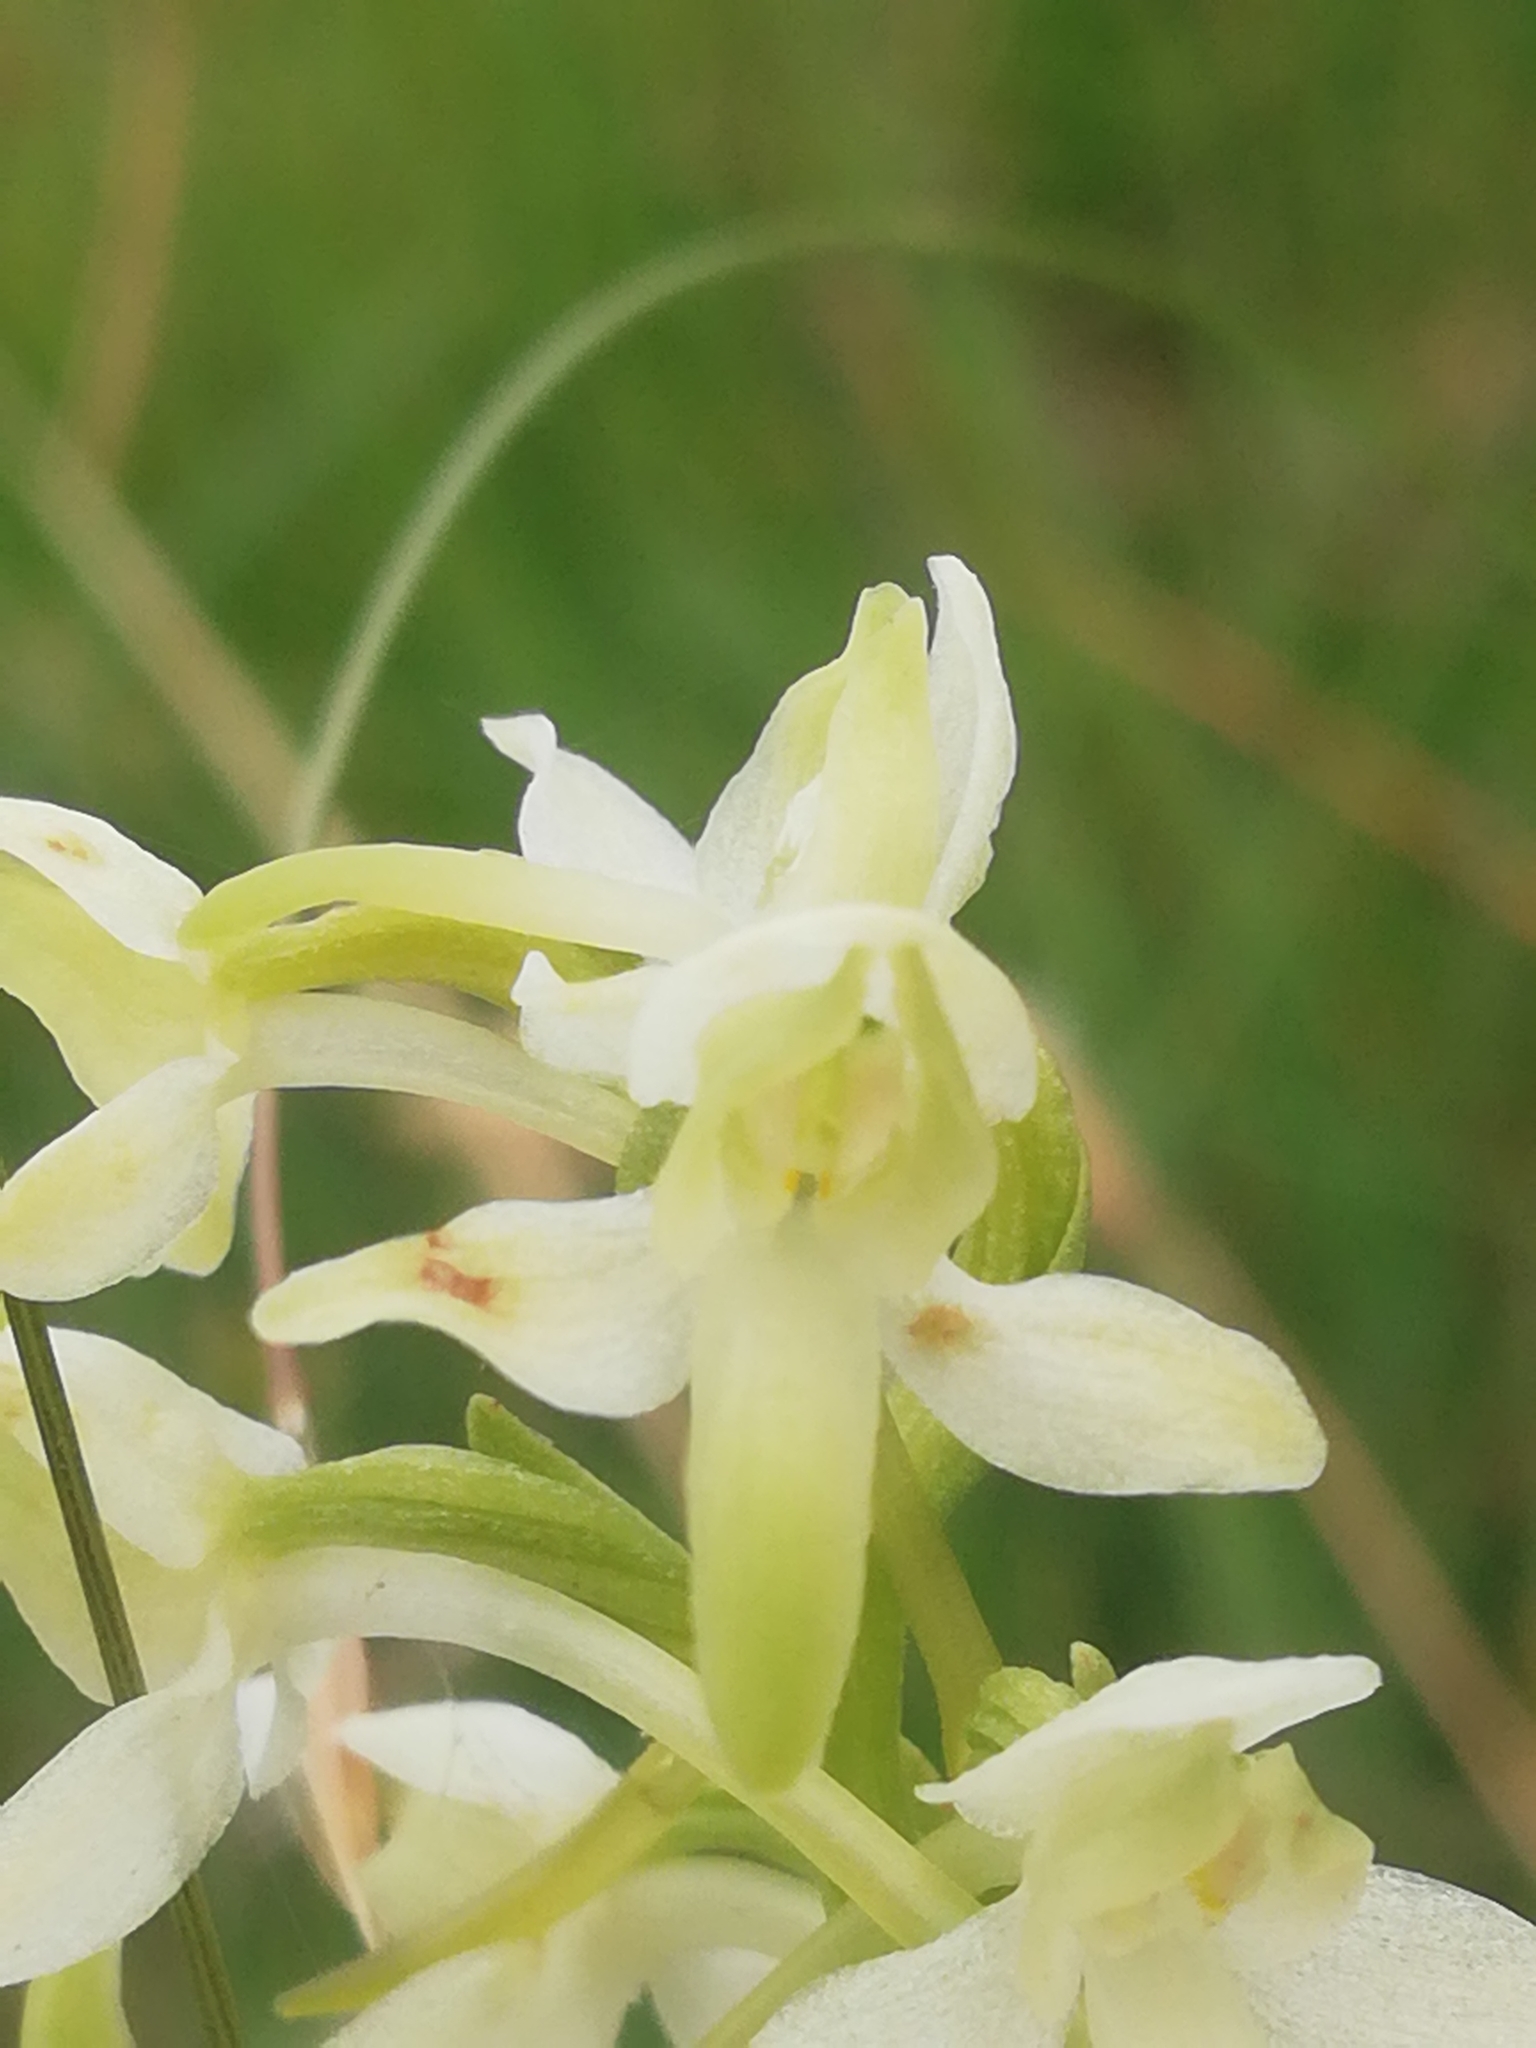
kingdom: Plantae
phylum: Tracheophyta
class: Liliopsida
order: Asparagales
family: Orchidaceae
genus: Platanthera
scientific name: Platanthera bifolia
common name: Lesser butterfly-orchid
